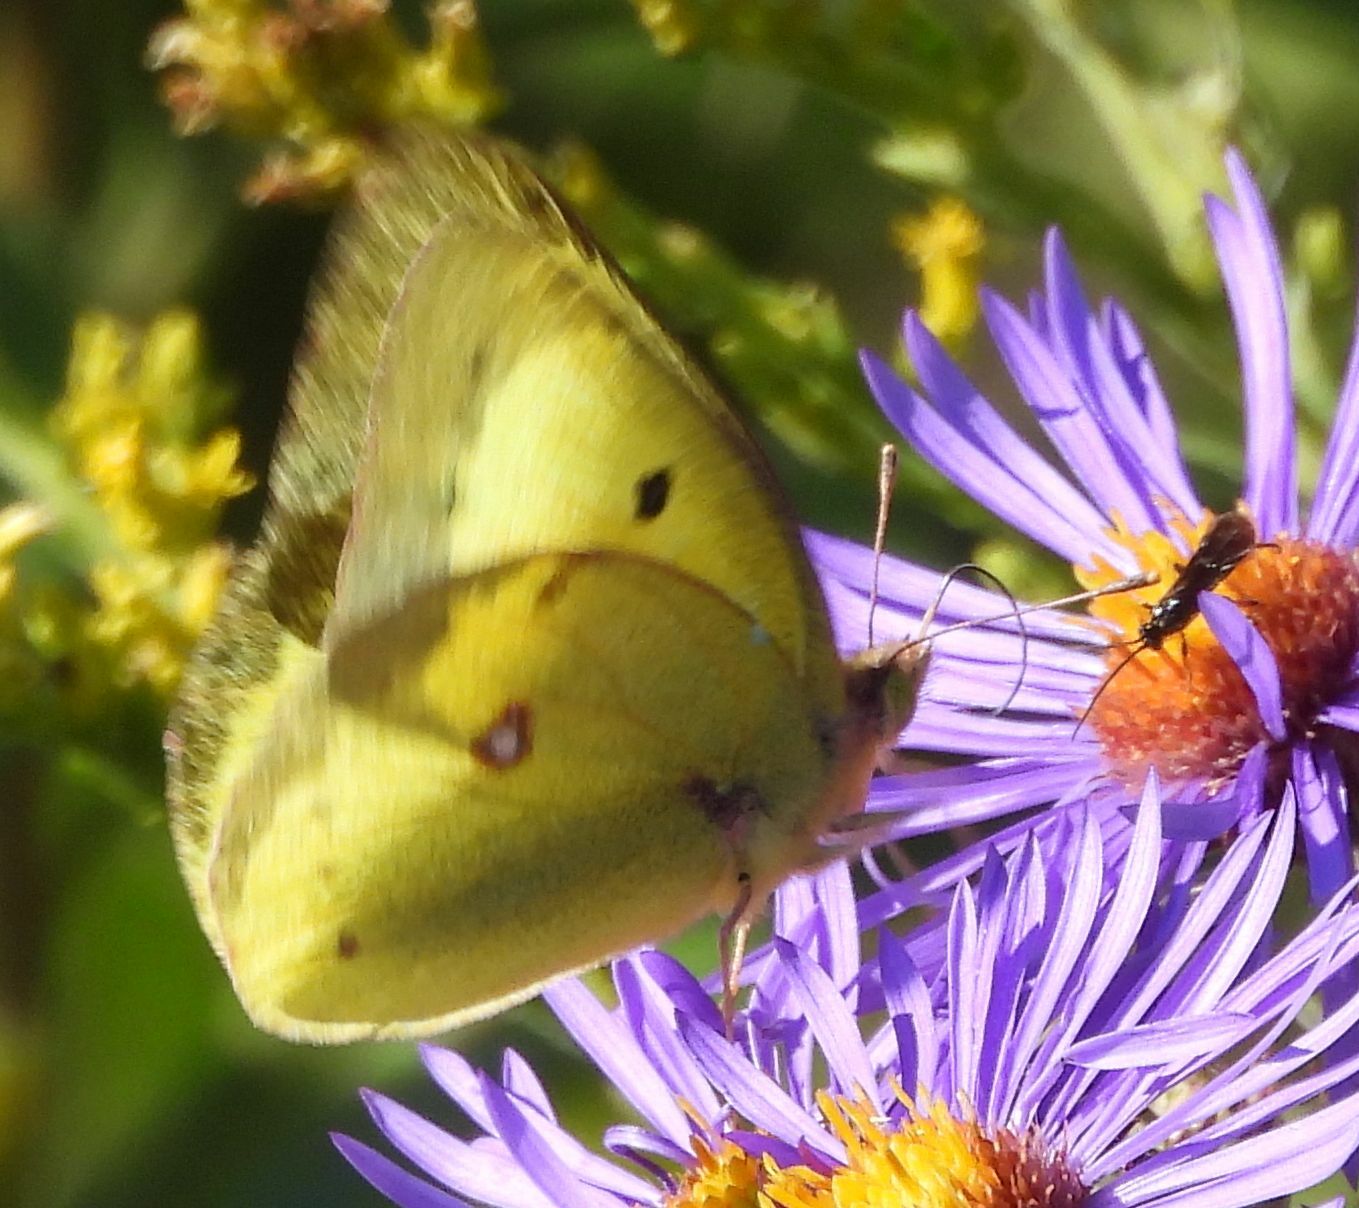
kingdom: Animalia
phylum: Arthropoda
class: Insecta
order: Lepidoptera
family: Pieridae
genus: Colias
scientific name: Colias philodice
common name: Clouded sulphur
